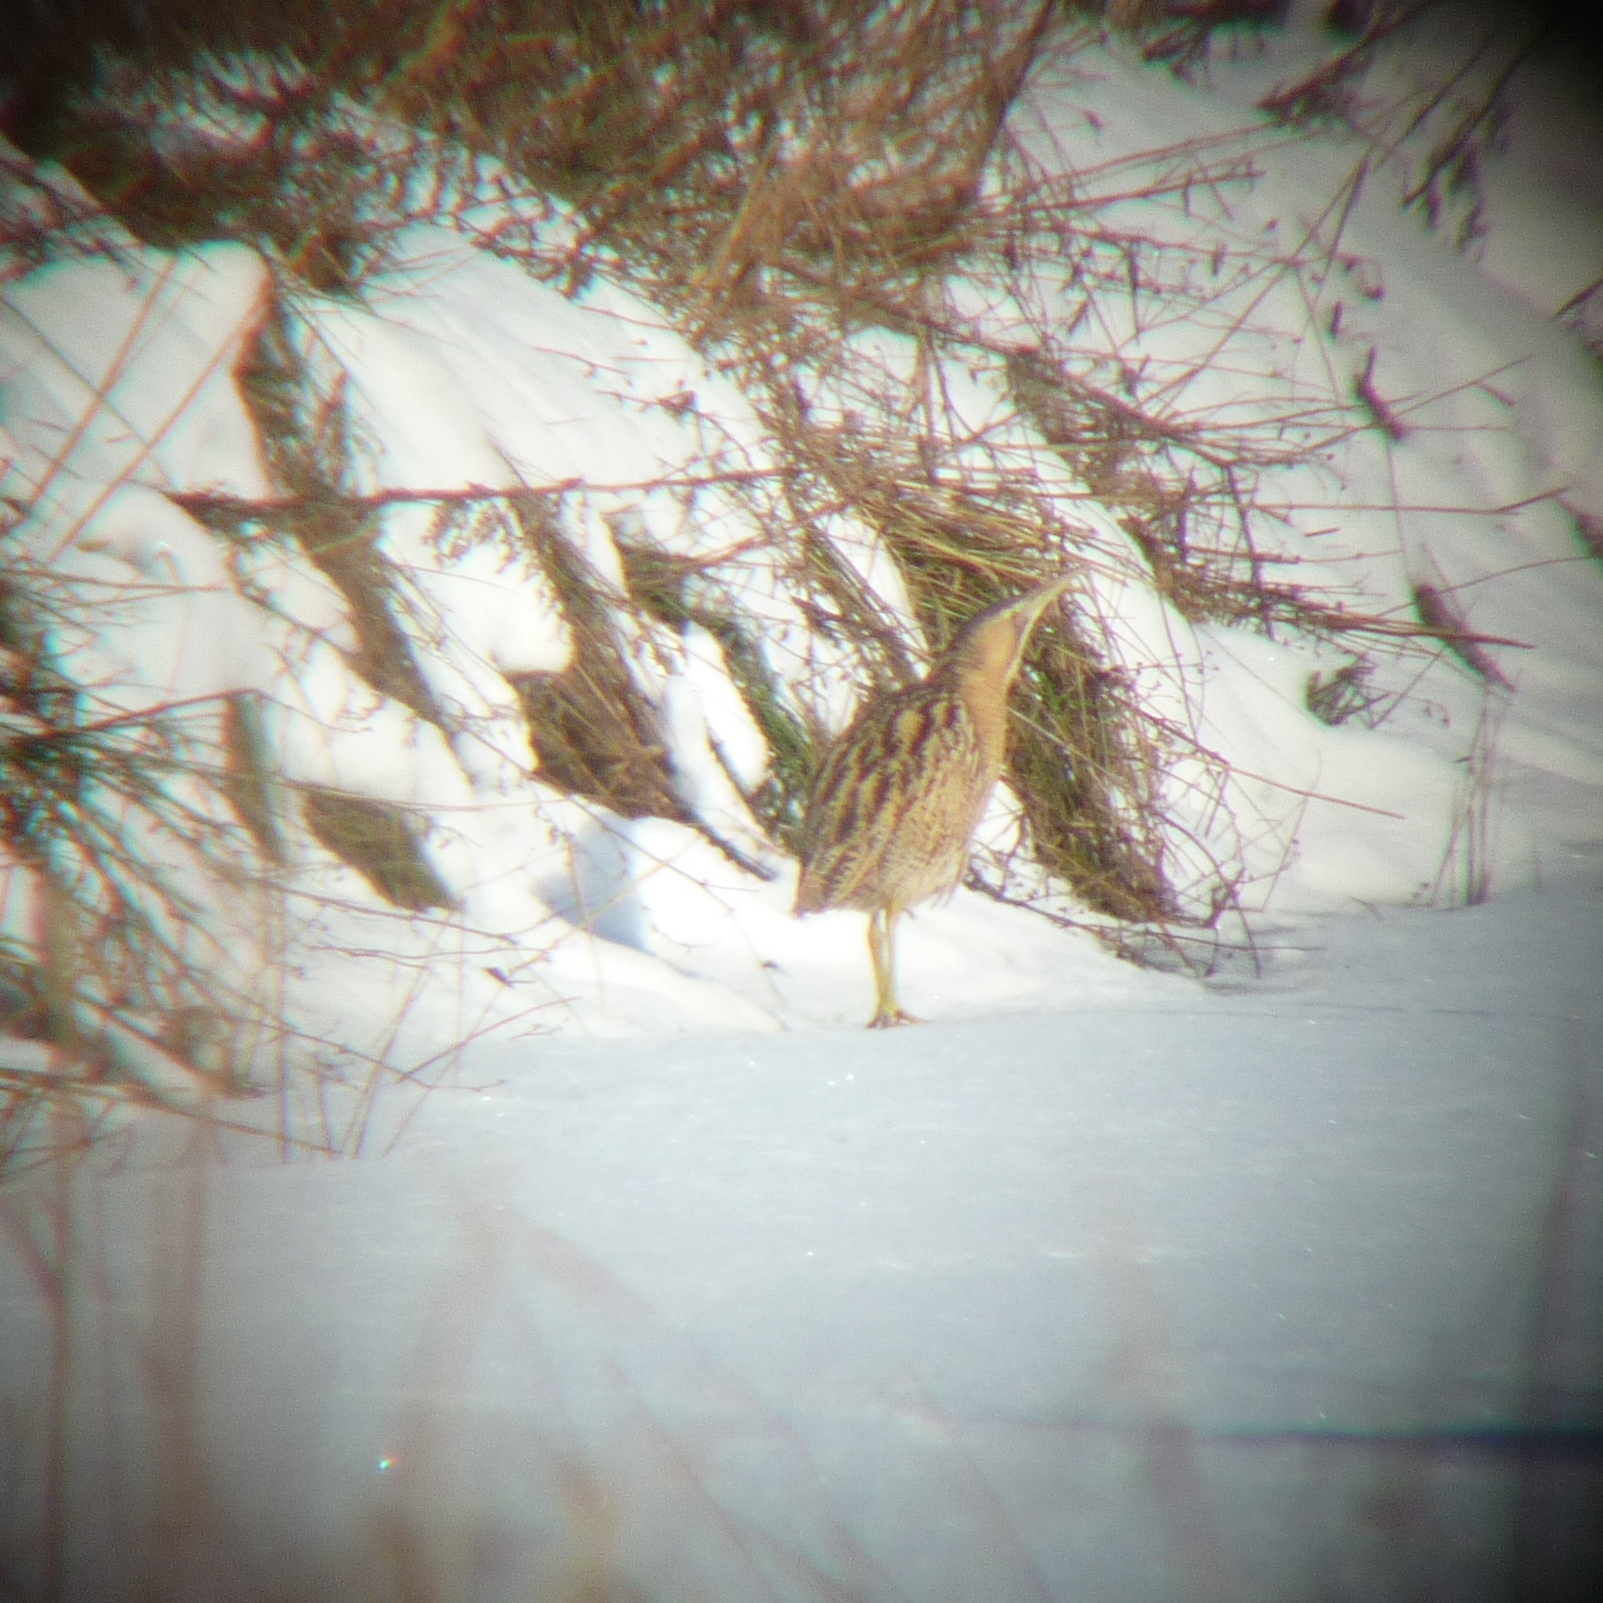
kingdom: Animalia
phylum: Chordata
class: Aves
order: Pelecaniformes
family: Ardeidae
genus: Botaurus
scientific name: Botaurus stellaris
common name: Eurasian bittern
